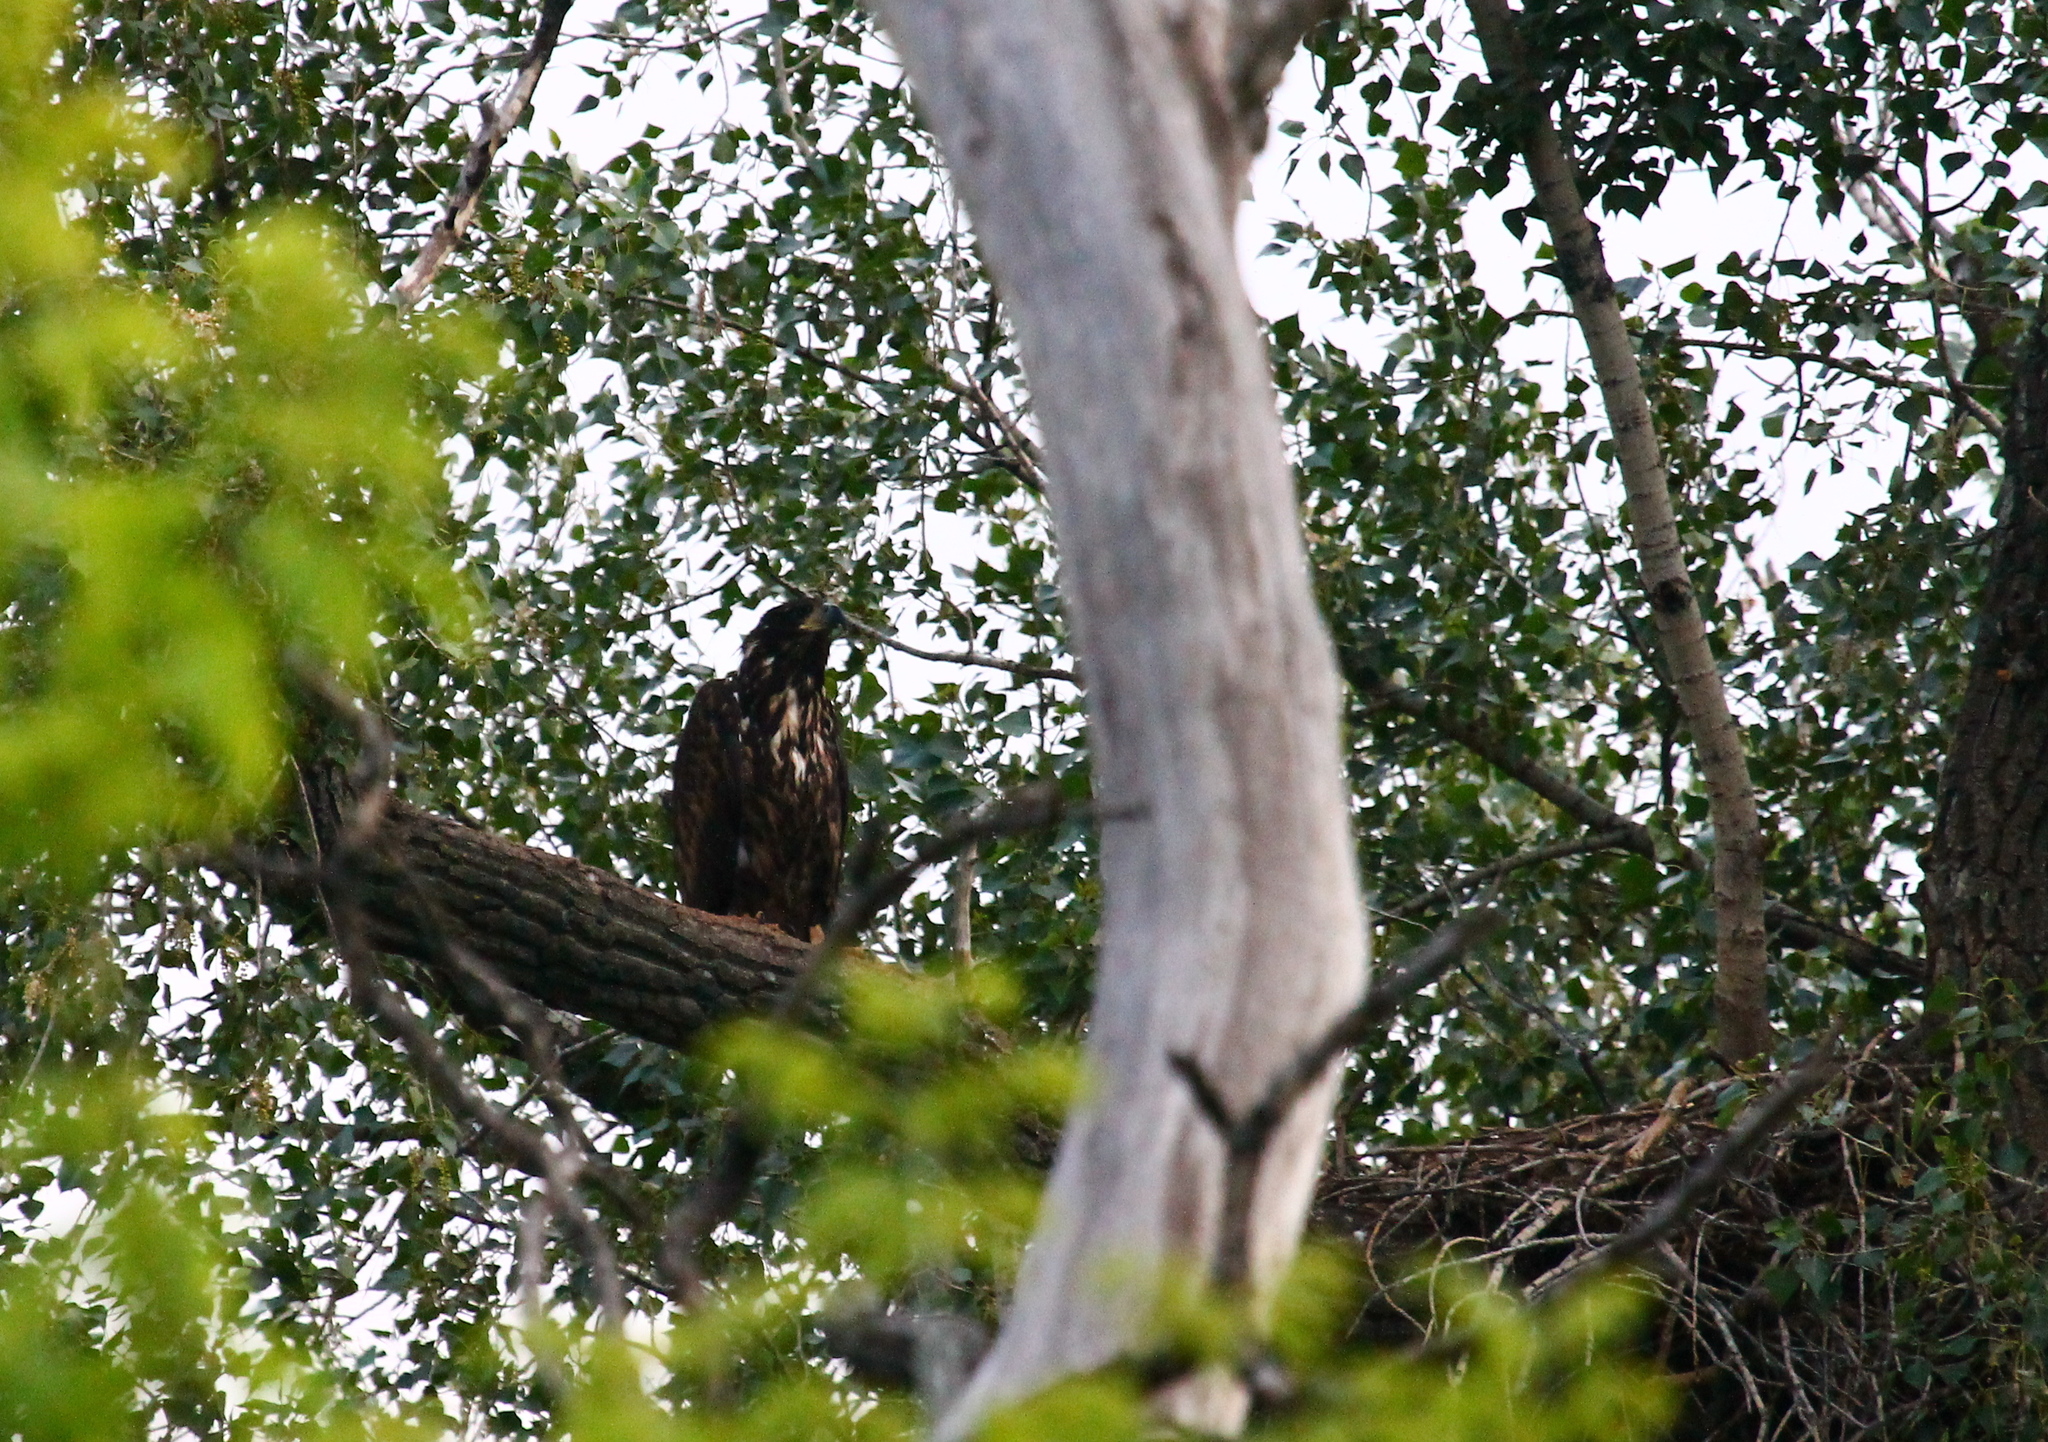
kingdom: Animalia
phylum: Chordata
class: Aves
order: Accipitriformes
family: Accipitridae
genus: Haliaeetus
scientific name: Haliaeetus albicilla
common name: White-tailed eagle
